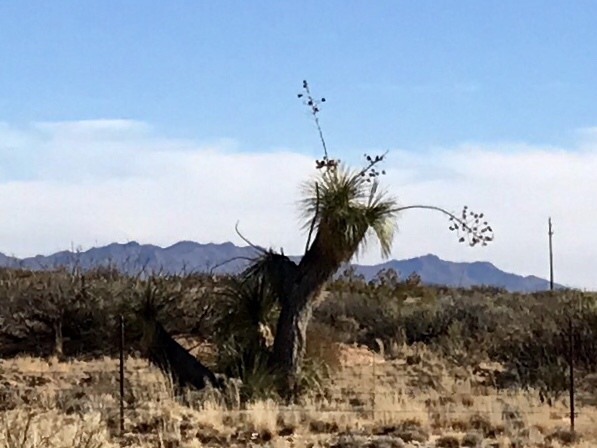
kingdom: Plantae
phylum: Tracheophyta
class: Liliopsida
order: Asparagales
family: Asparagaceae
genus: Yucca
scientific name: Yucca elata
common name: Palmella
